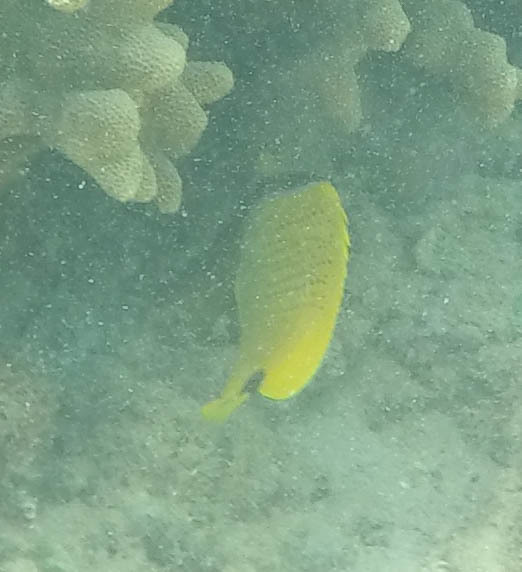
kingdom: Animalia
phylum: Chordata
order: Perciformes
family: Chaetodontidae
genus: Chaetodon
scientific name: Chaetodon miliaris
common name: Lemon butterflyfish
